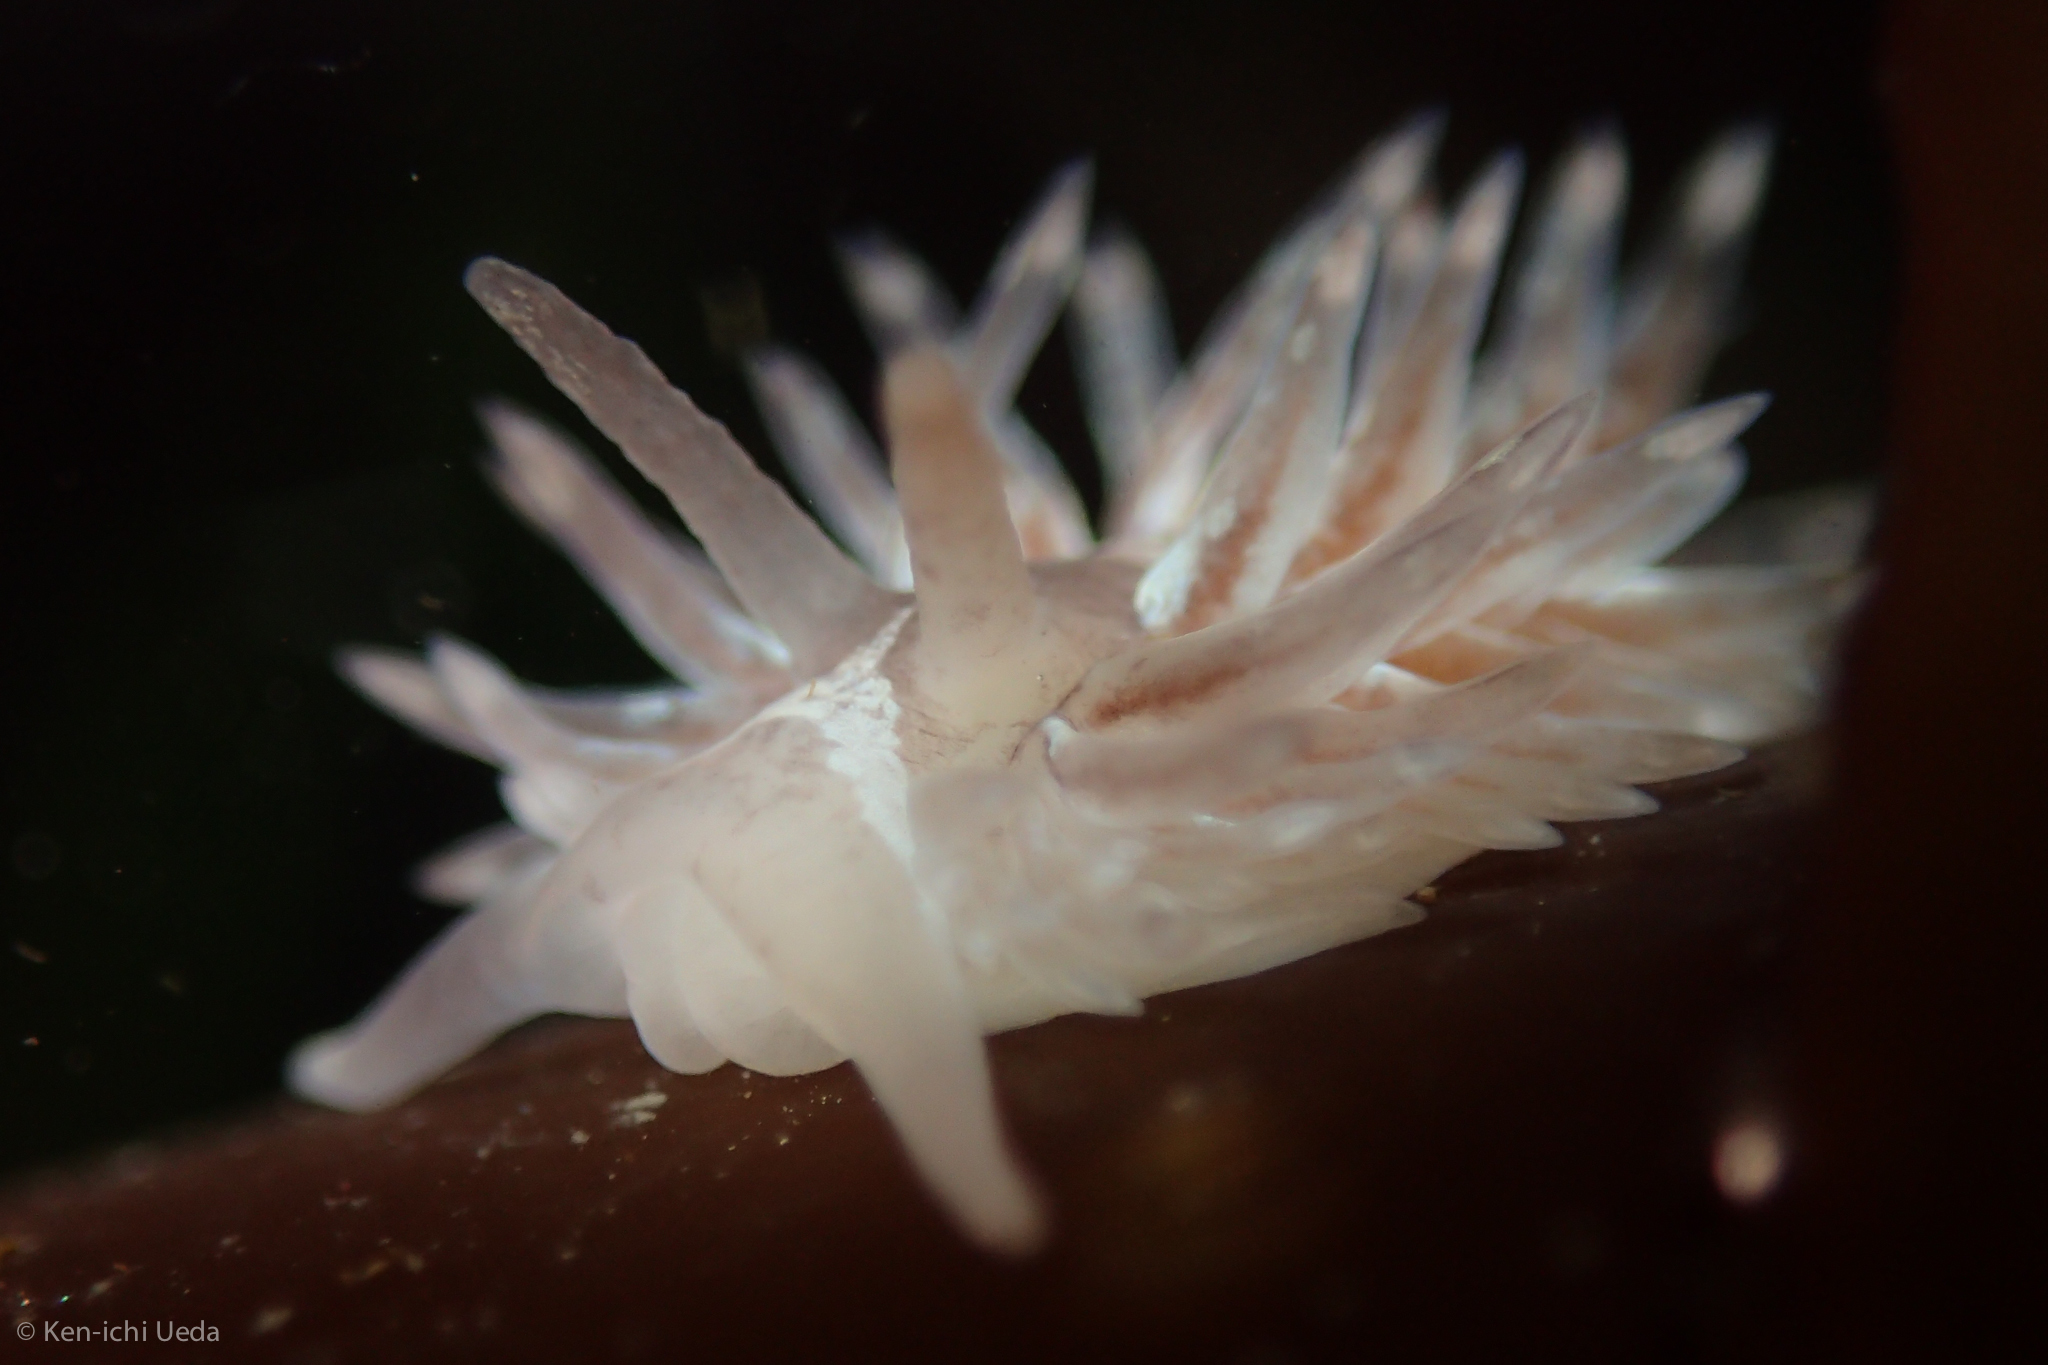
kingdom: Animalia
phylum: Mollusca
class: Gastropoda
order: Nudibranchia
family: Aeolidiidae
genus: Aeolidia
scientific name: Aeolidia loui
